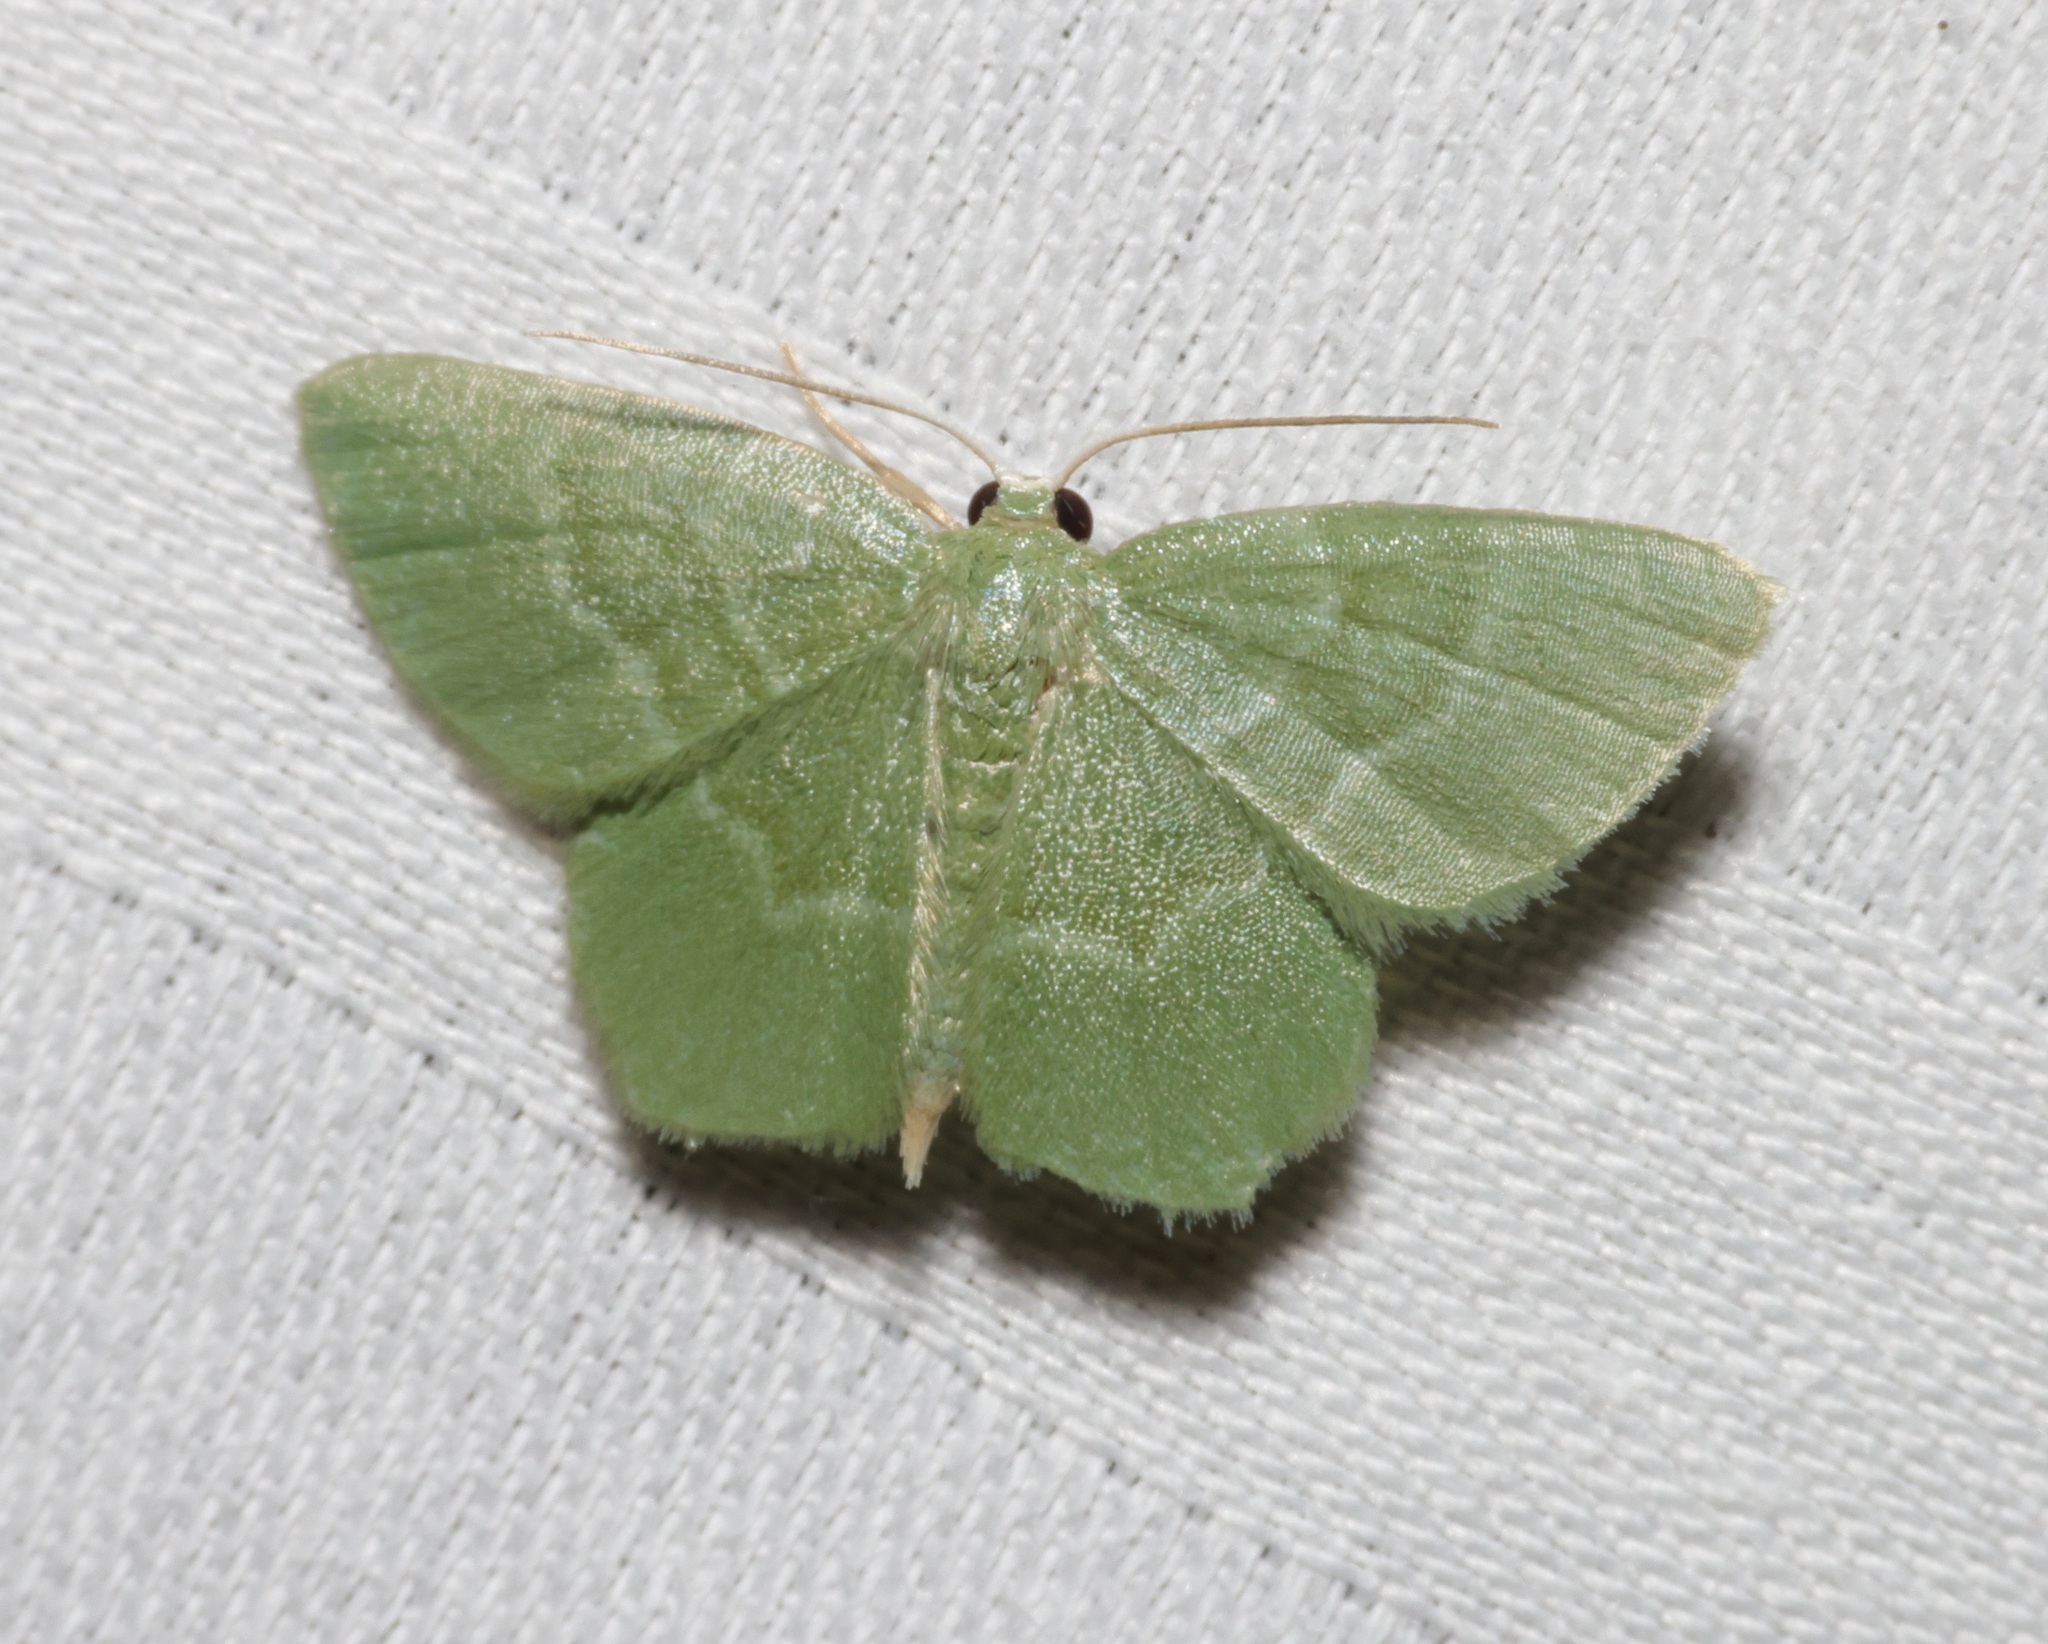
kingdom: Animalia
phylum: Arthropoda
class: Insecta
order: Lepidoptera
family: Geometridae
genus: Idiochlora
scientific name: Idiochlora minuscula
